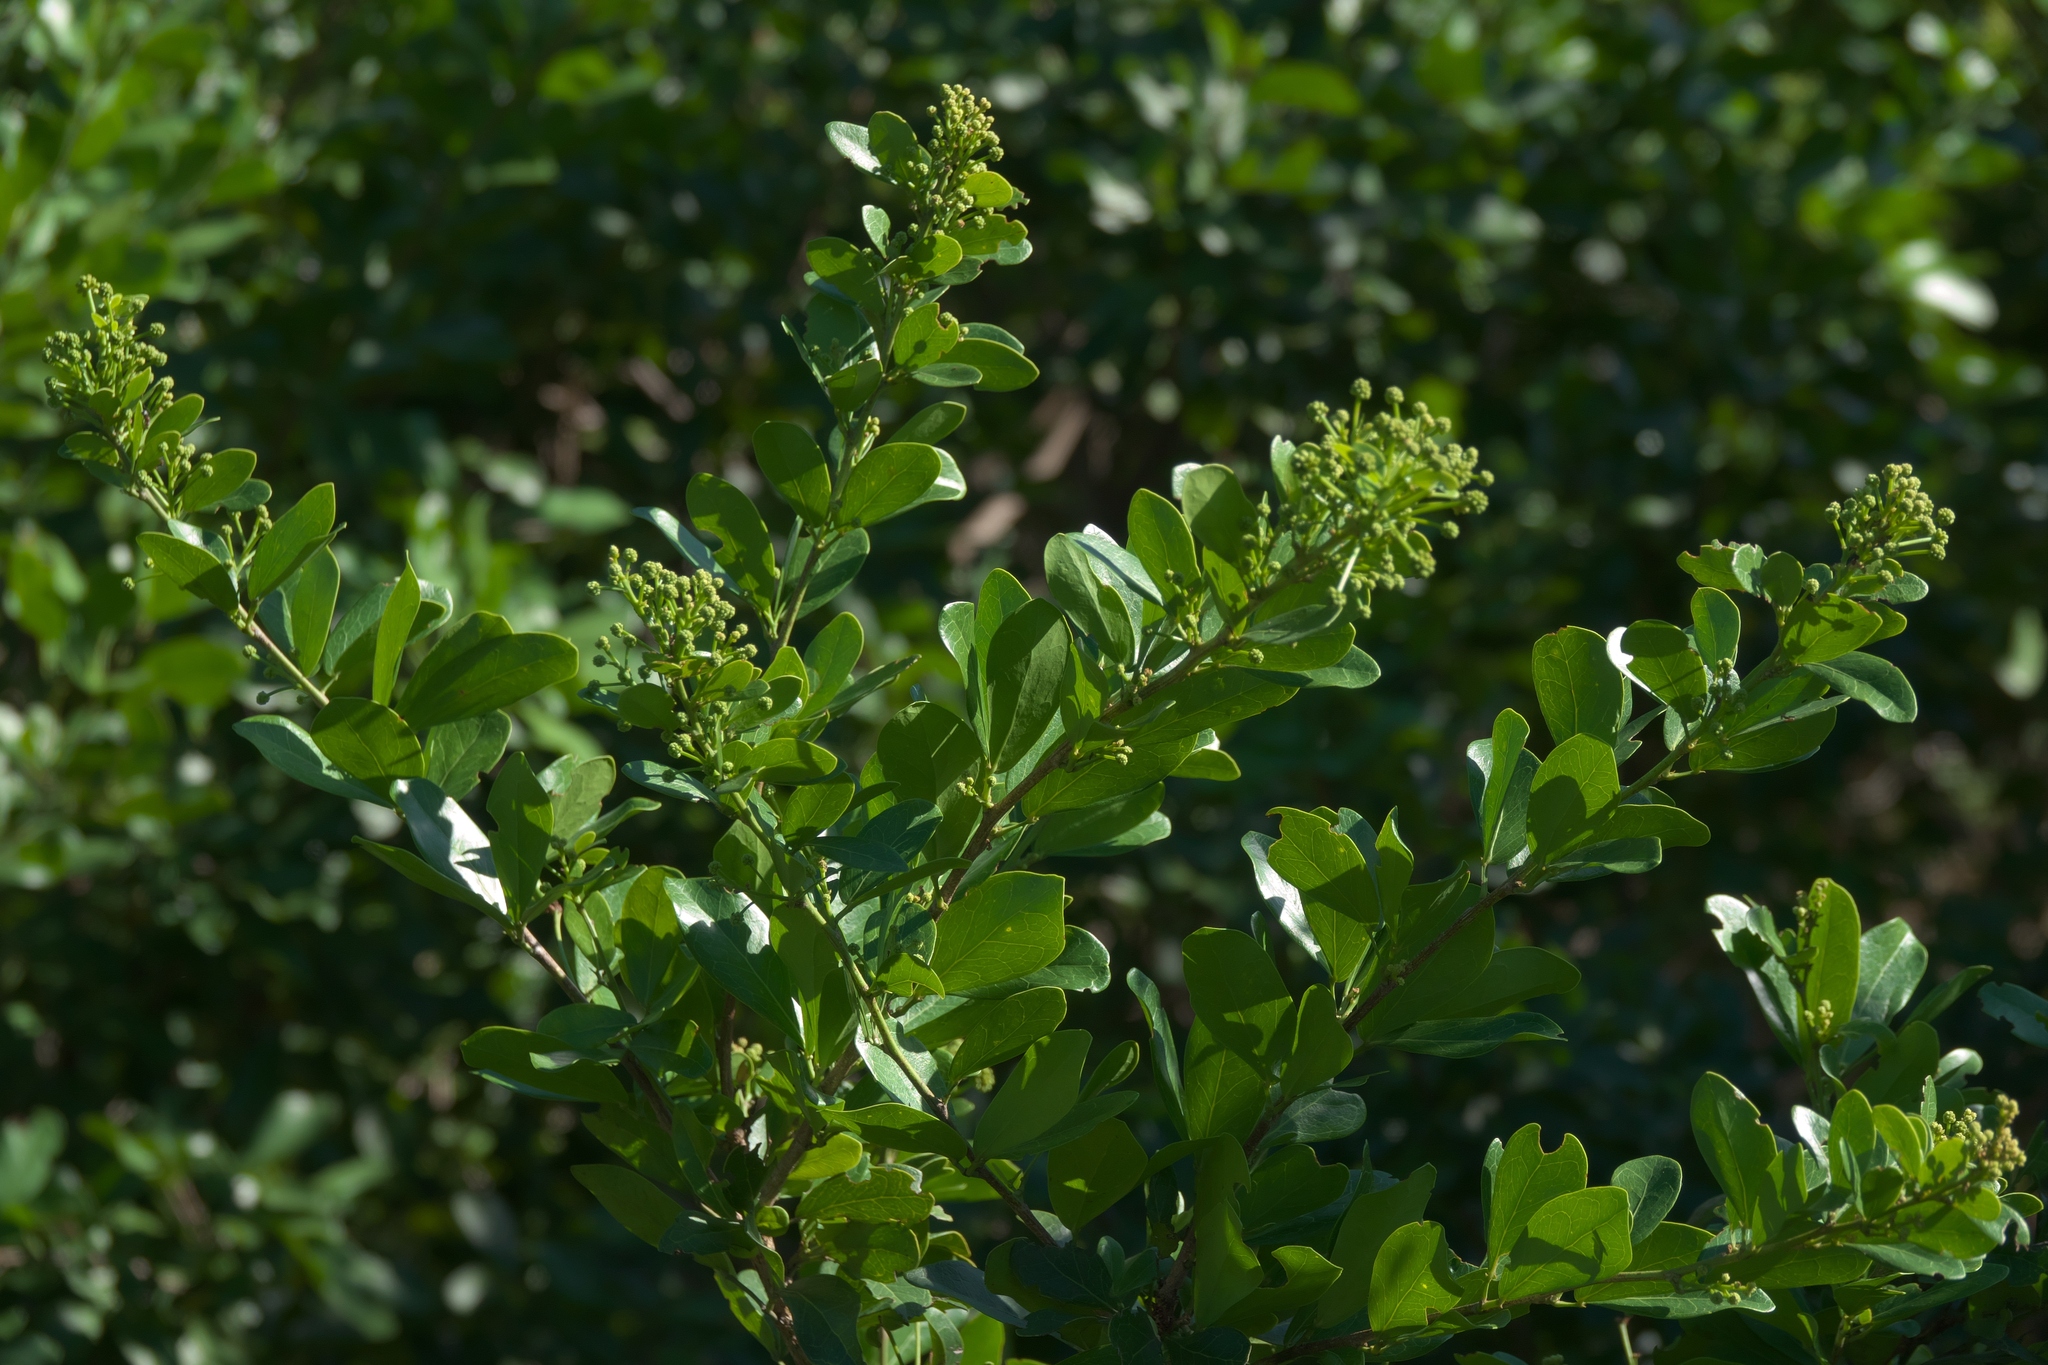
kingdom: Plantae
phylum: Tracheophyta
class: Magnoliopsida
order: Myrtales
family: Combretaceae
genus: Conocarpus
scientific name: Conocarpus erectus
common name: Button mangrove
